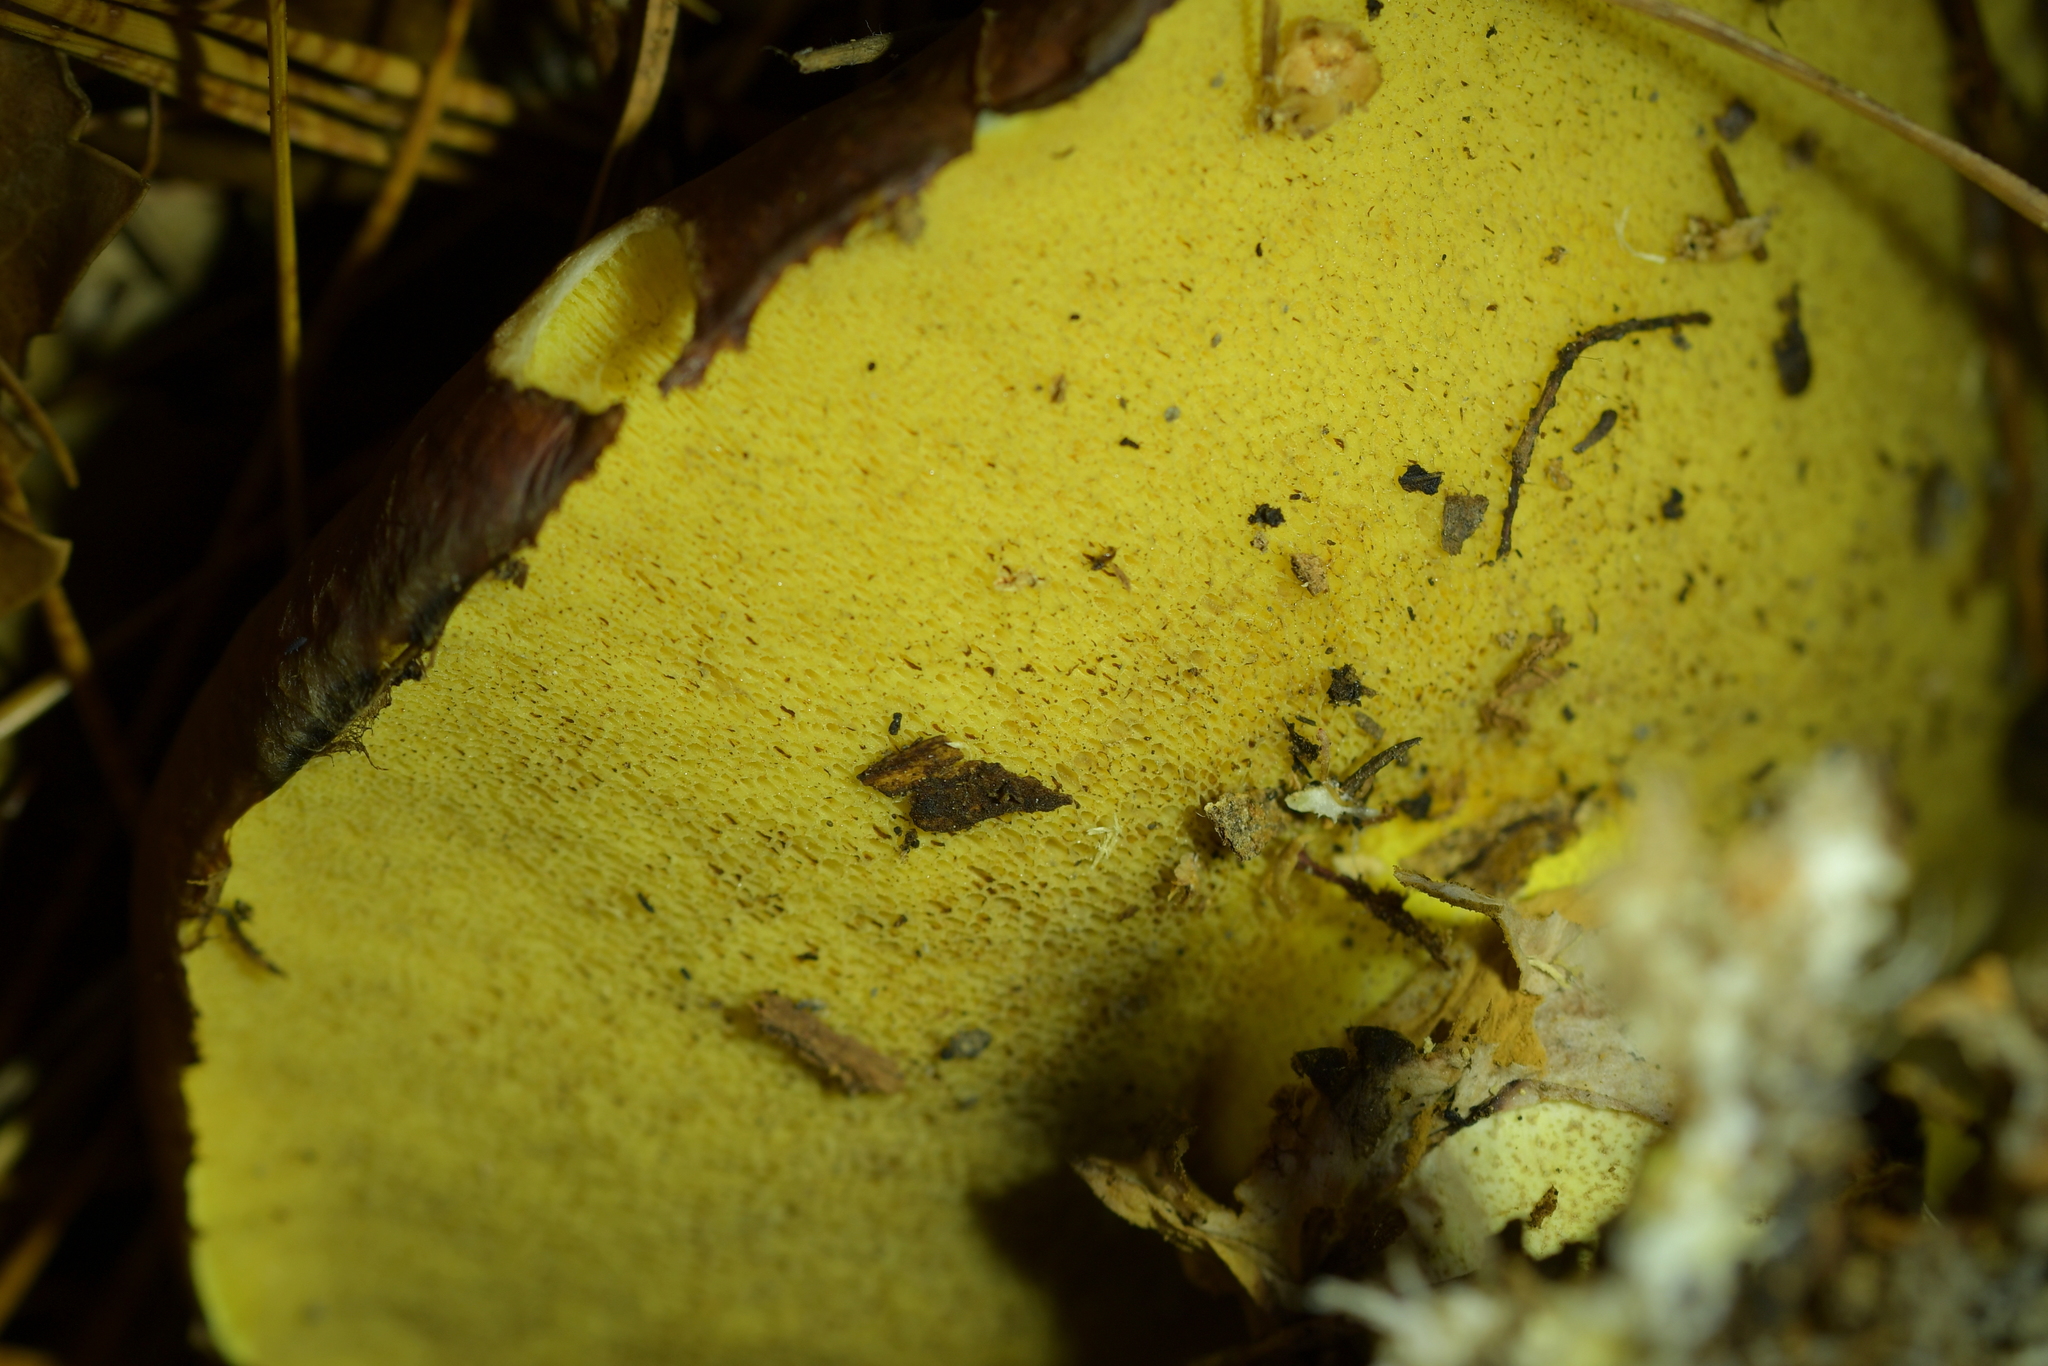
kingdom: Fungi
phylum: Basidiomycota
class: Agaricomycetes
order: Boletales
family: Suillaceae
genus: Suillus
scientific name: Suillus luteus
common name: Slippery jack
